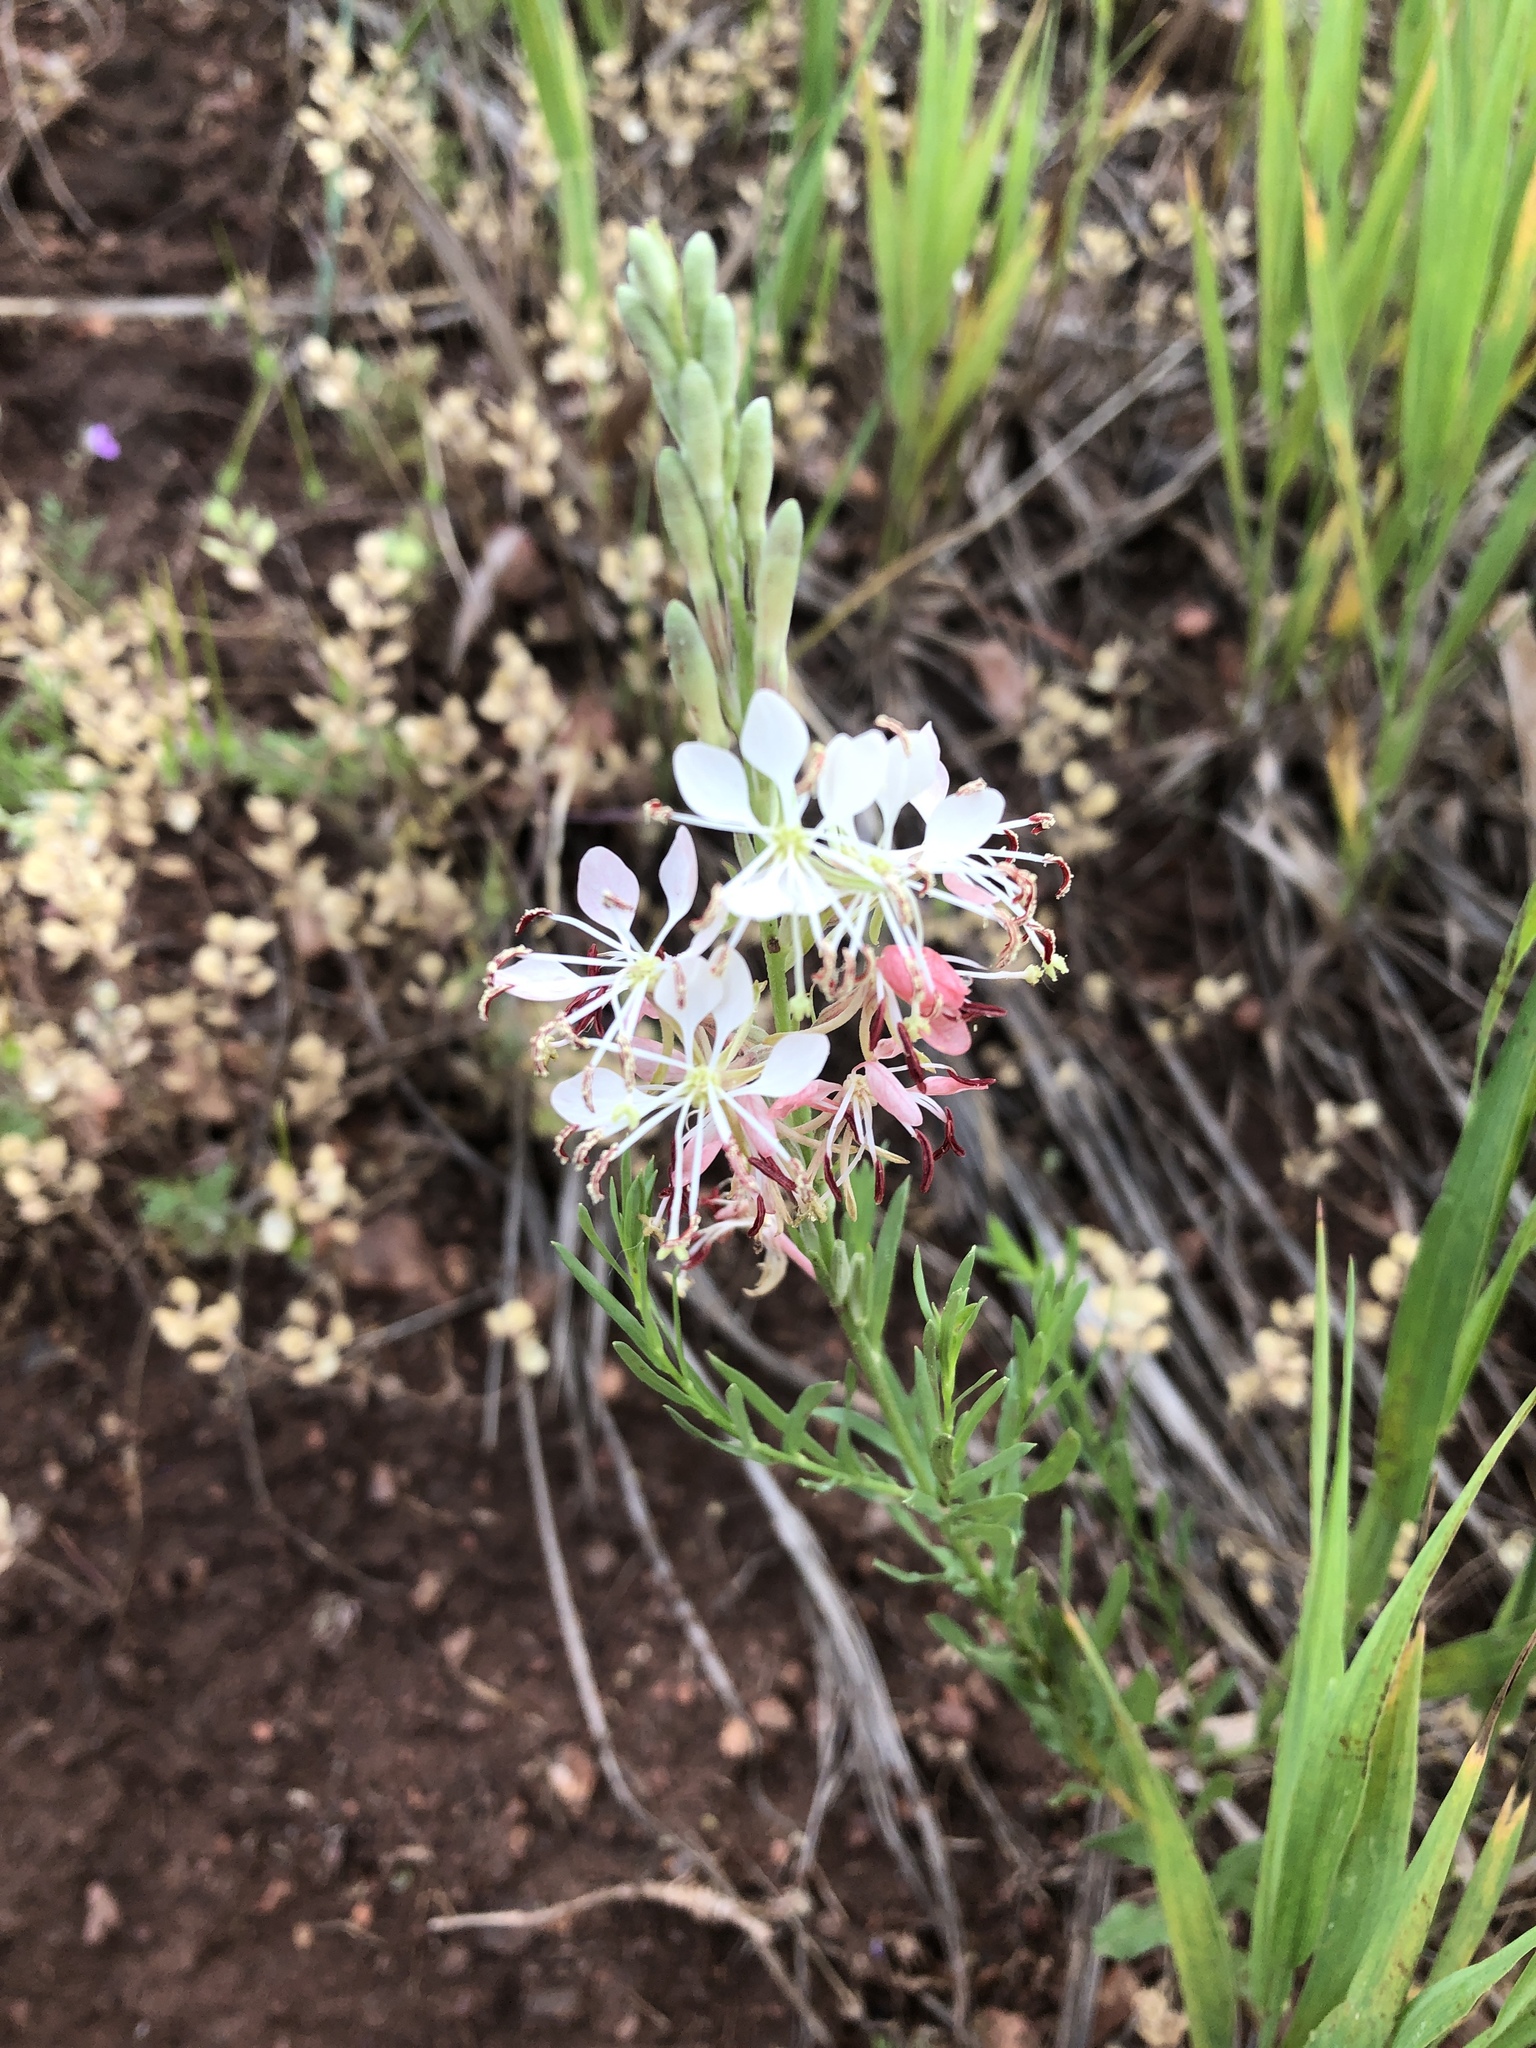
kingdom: Plantae
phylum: Tracheophyta
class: Magnoliopsida
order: Myrtales
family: Onagraceae
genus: Oenothera
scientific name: Oenothera suffrutescens
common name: Scarlet beeblossom
